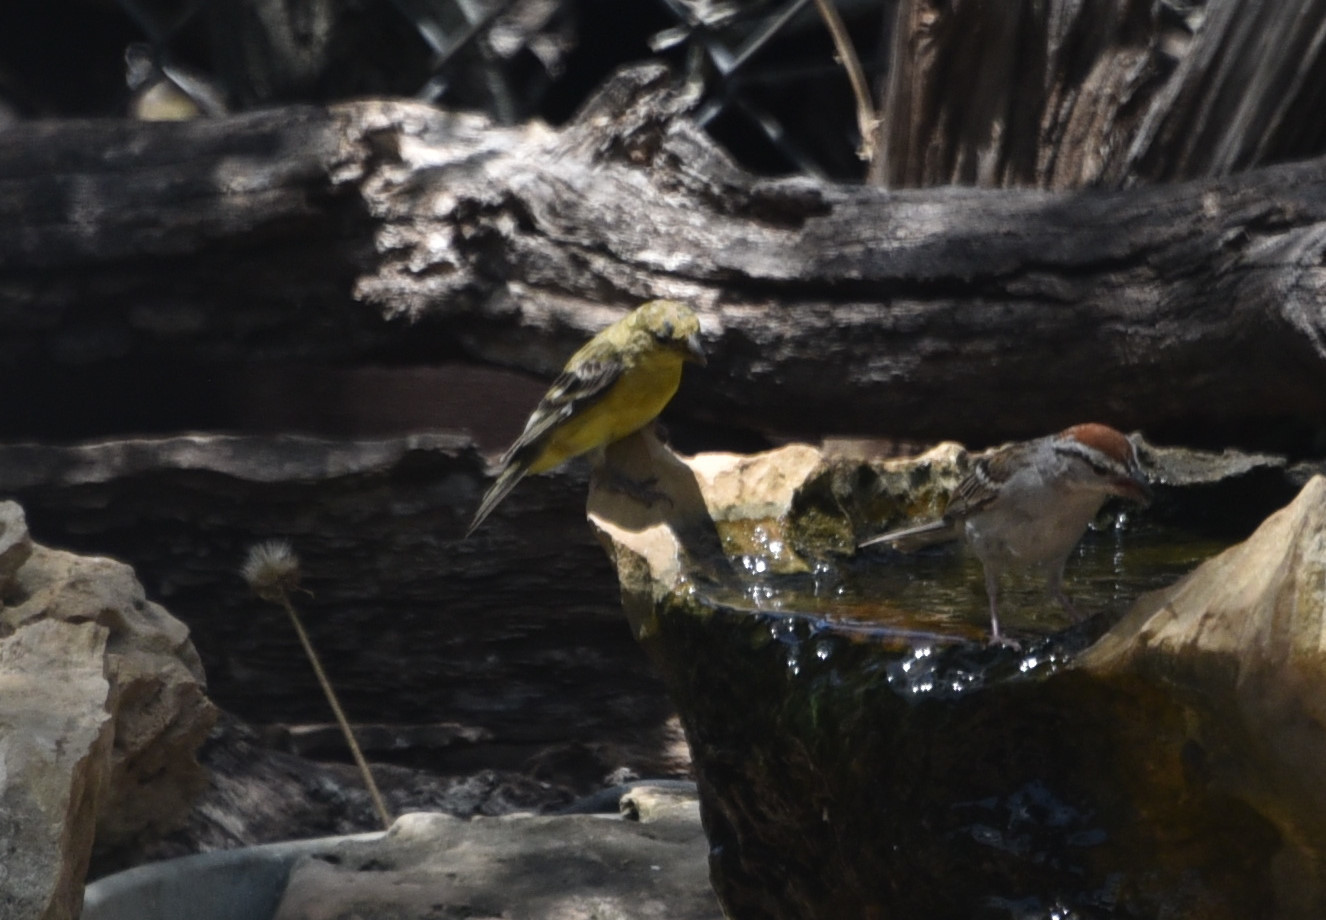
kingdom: Animalia
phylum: Chordata
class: Aves
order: Passeriformes
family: Fringillidae
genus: Spinus
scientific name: Spinus psaltria
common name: Lesser goldfinch
